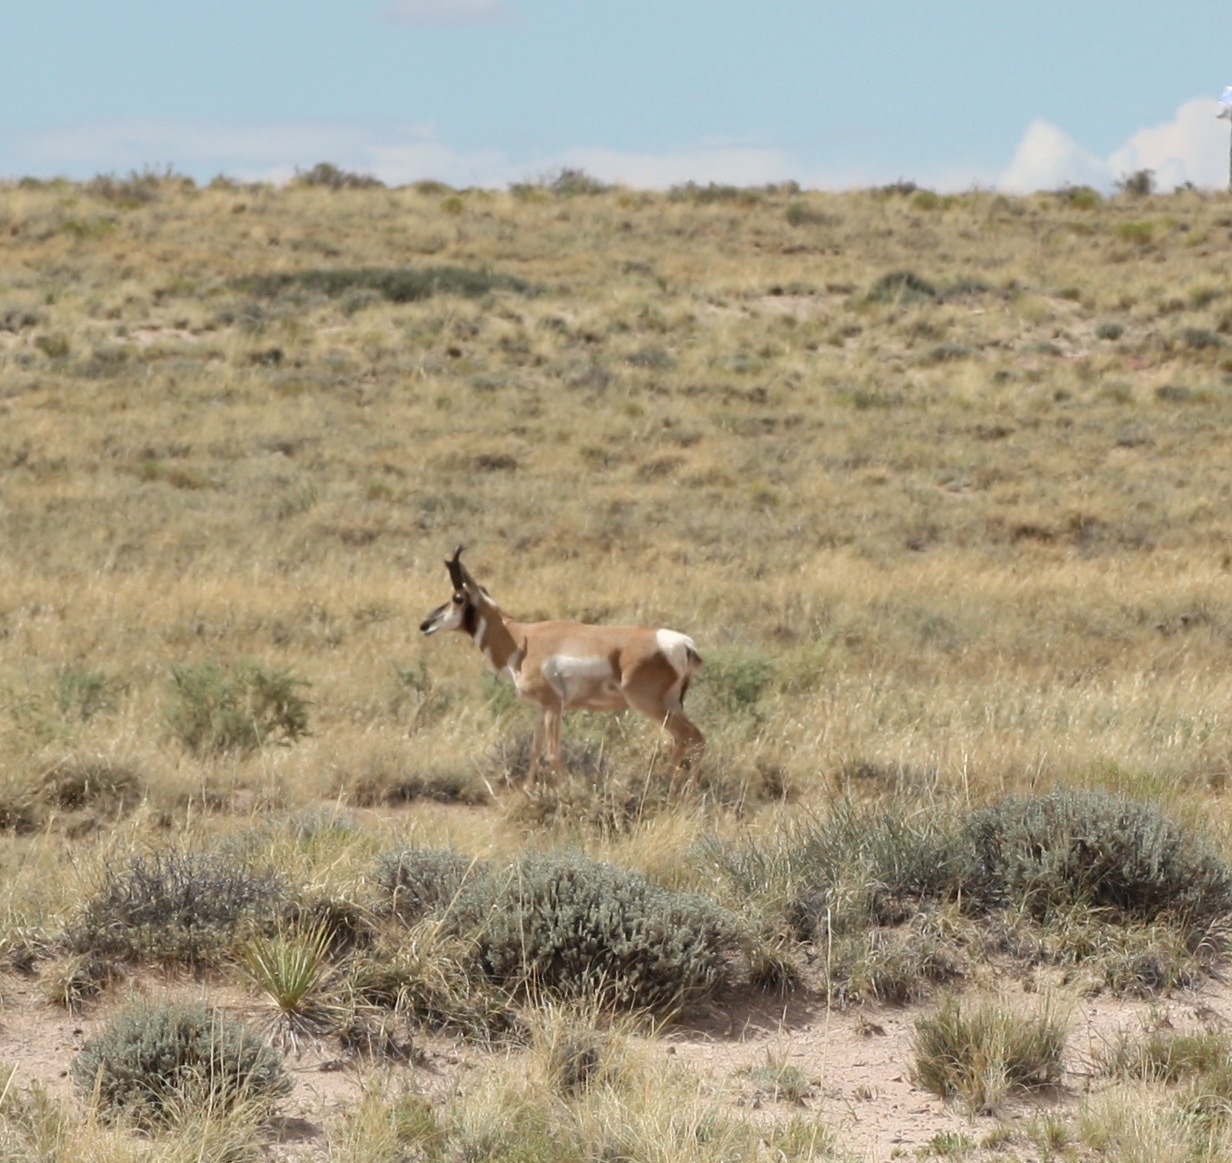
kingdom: Animalia
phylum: Chordata
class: Mammalia
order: Artiodactyla
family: Antilocapridae
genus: Antilocapra
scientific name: Antilocapra americana
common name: Pronghorn
